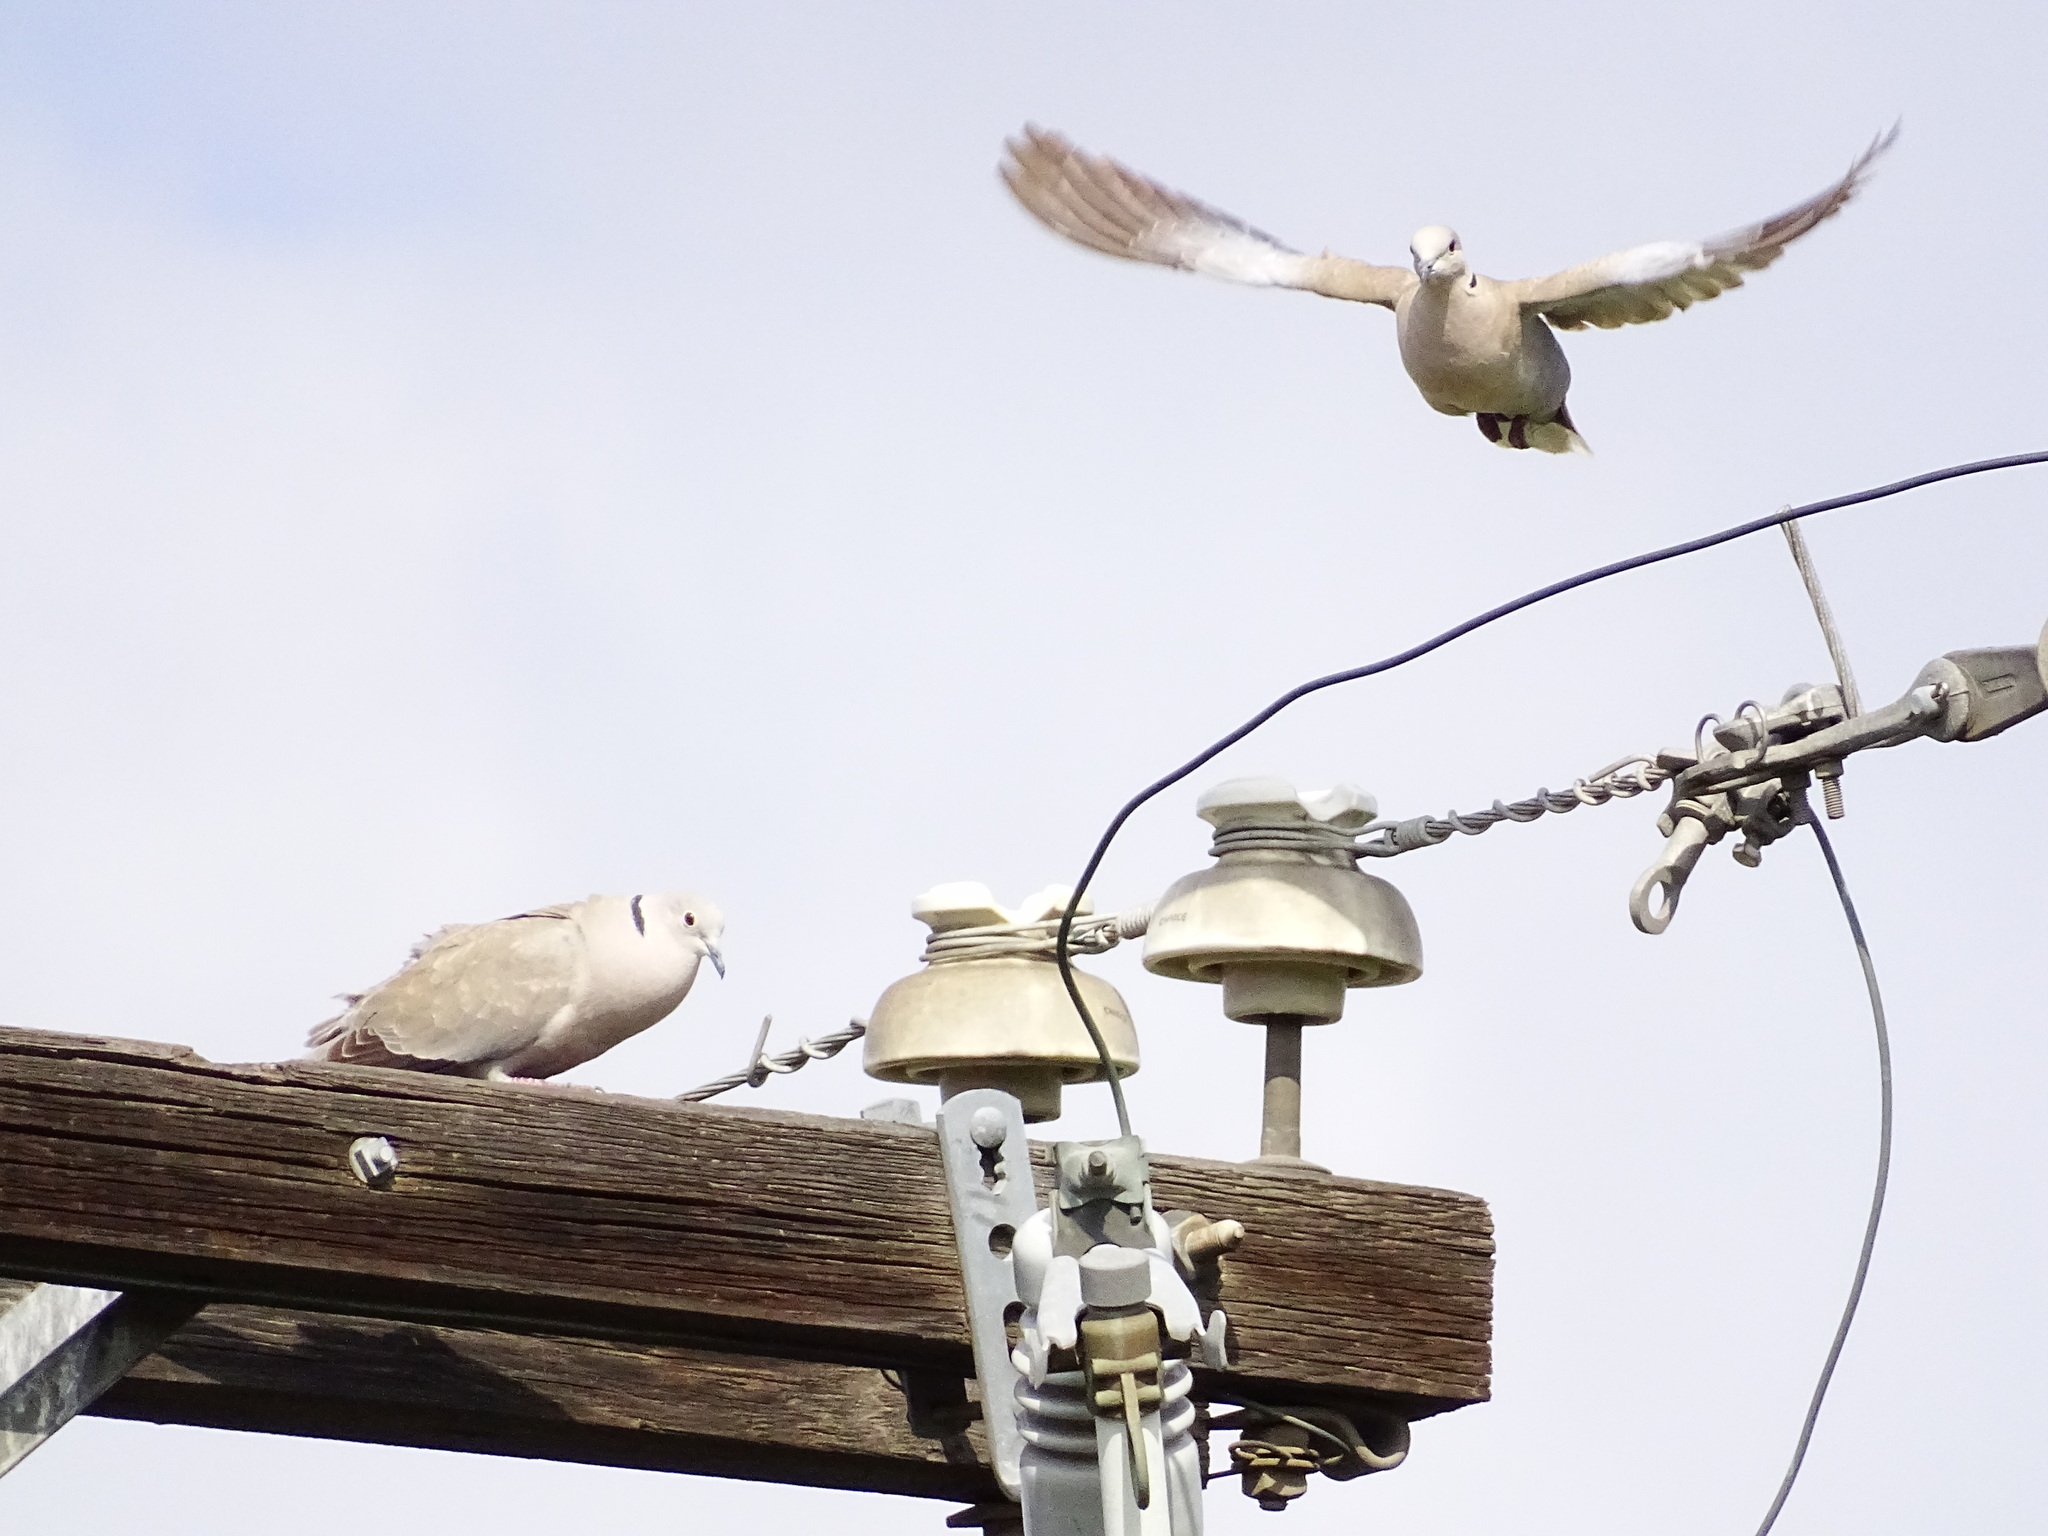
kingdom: Animalia
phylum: Chordata
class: Aves
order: Columbiformes
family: Columbidae
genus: Streptopelia
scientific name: Streptopelia decaocto
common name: Eurasian collared dove
